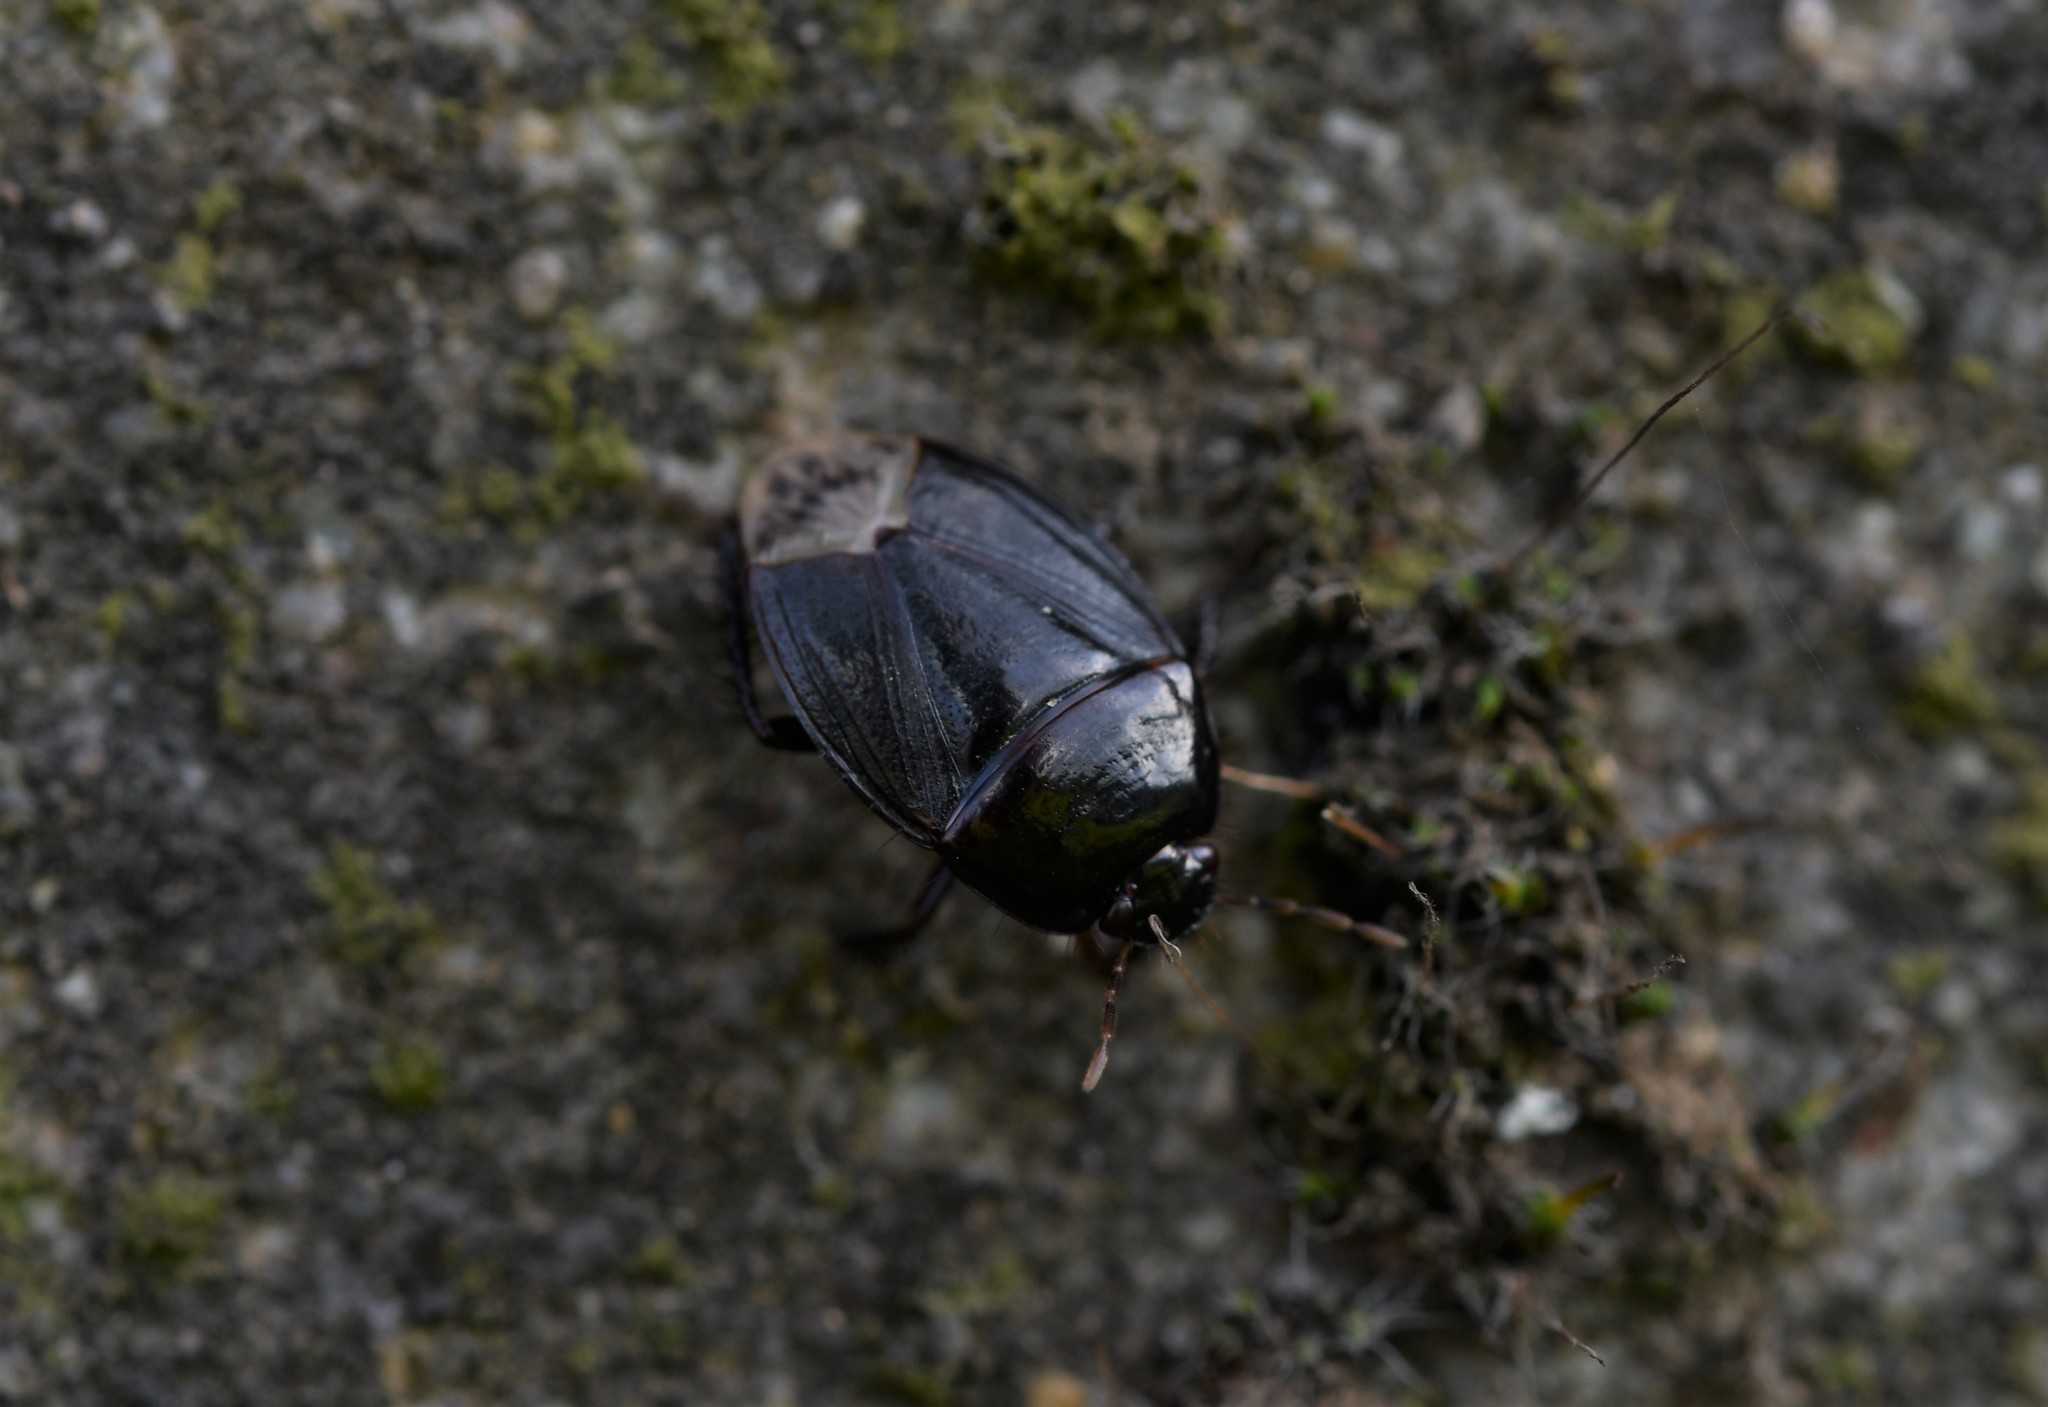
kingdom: Animalia
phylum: Arthropoda
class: Insecta
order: Hemiptera
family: Cydnidae
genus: Macroscytus
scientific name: Macroscytus brunneus
